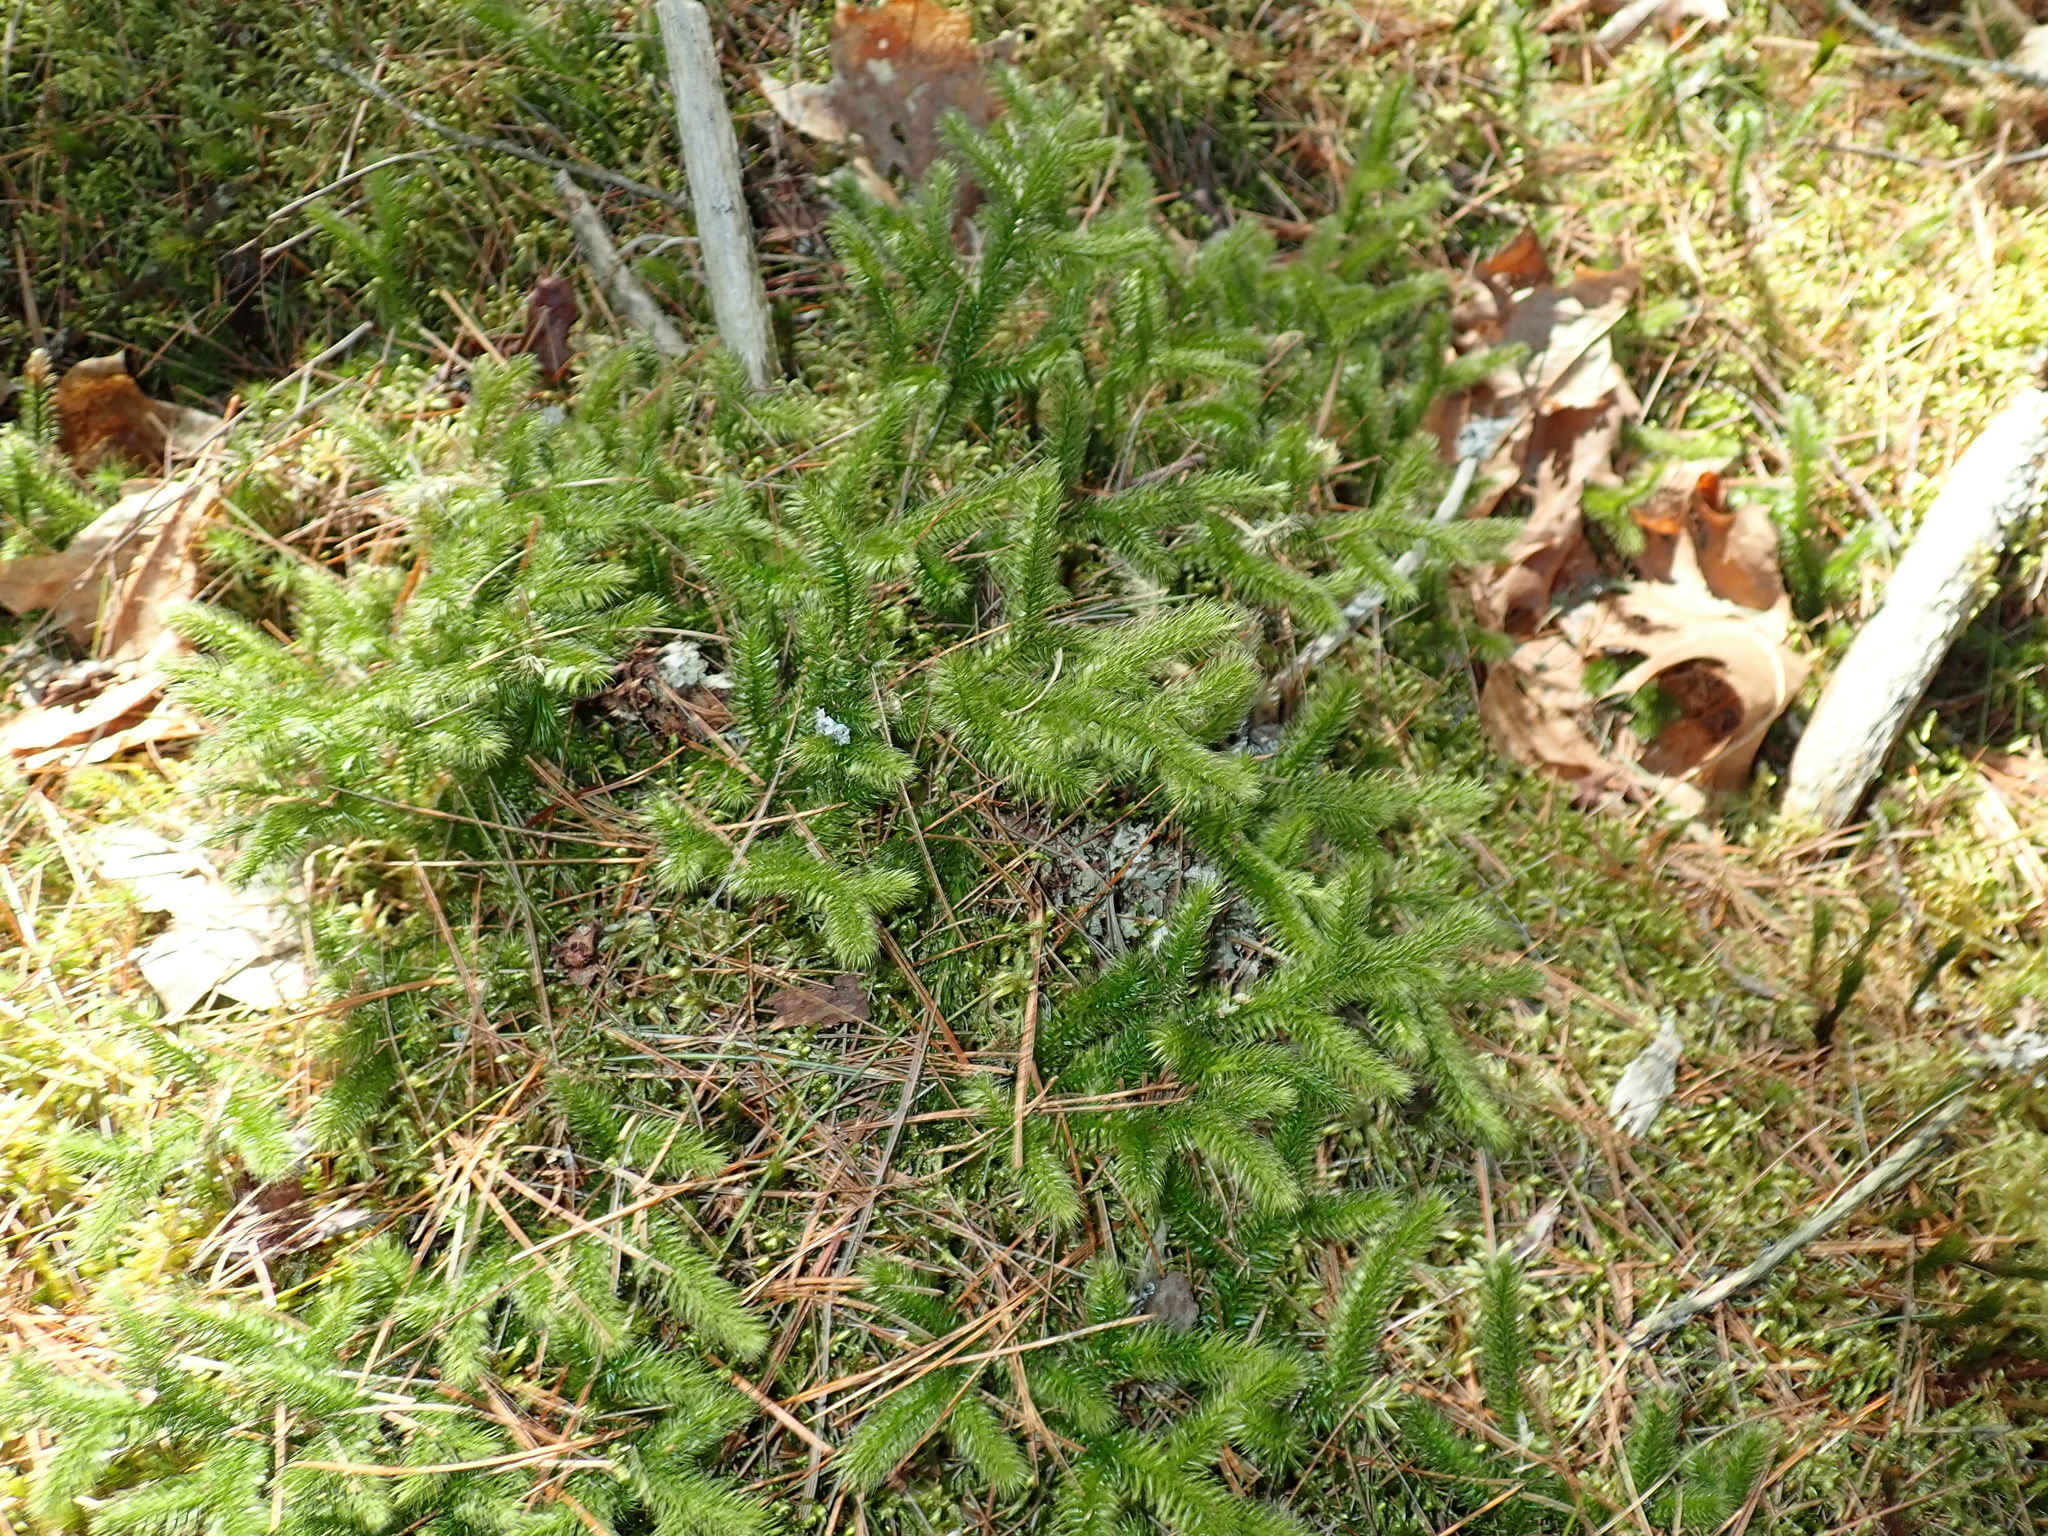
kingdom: Plantae
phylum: Tracheophyta
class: Lycopodiopsida
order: Lycopodiales
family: Lycopodiaceae
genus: Lycopodium
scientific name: Lycopodium clavatum
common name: Stag's-horn clubmoss
